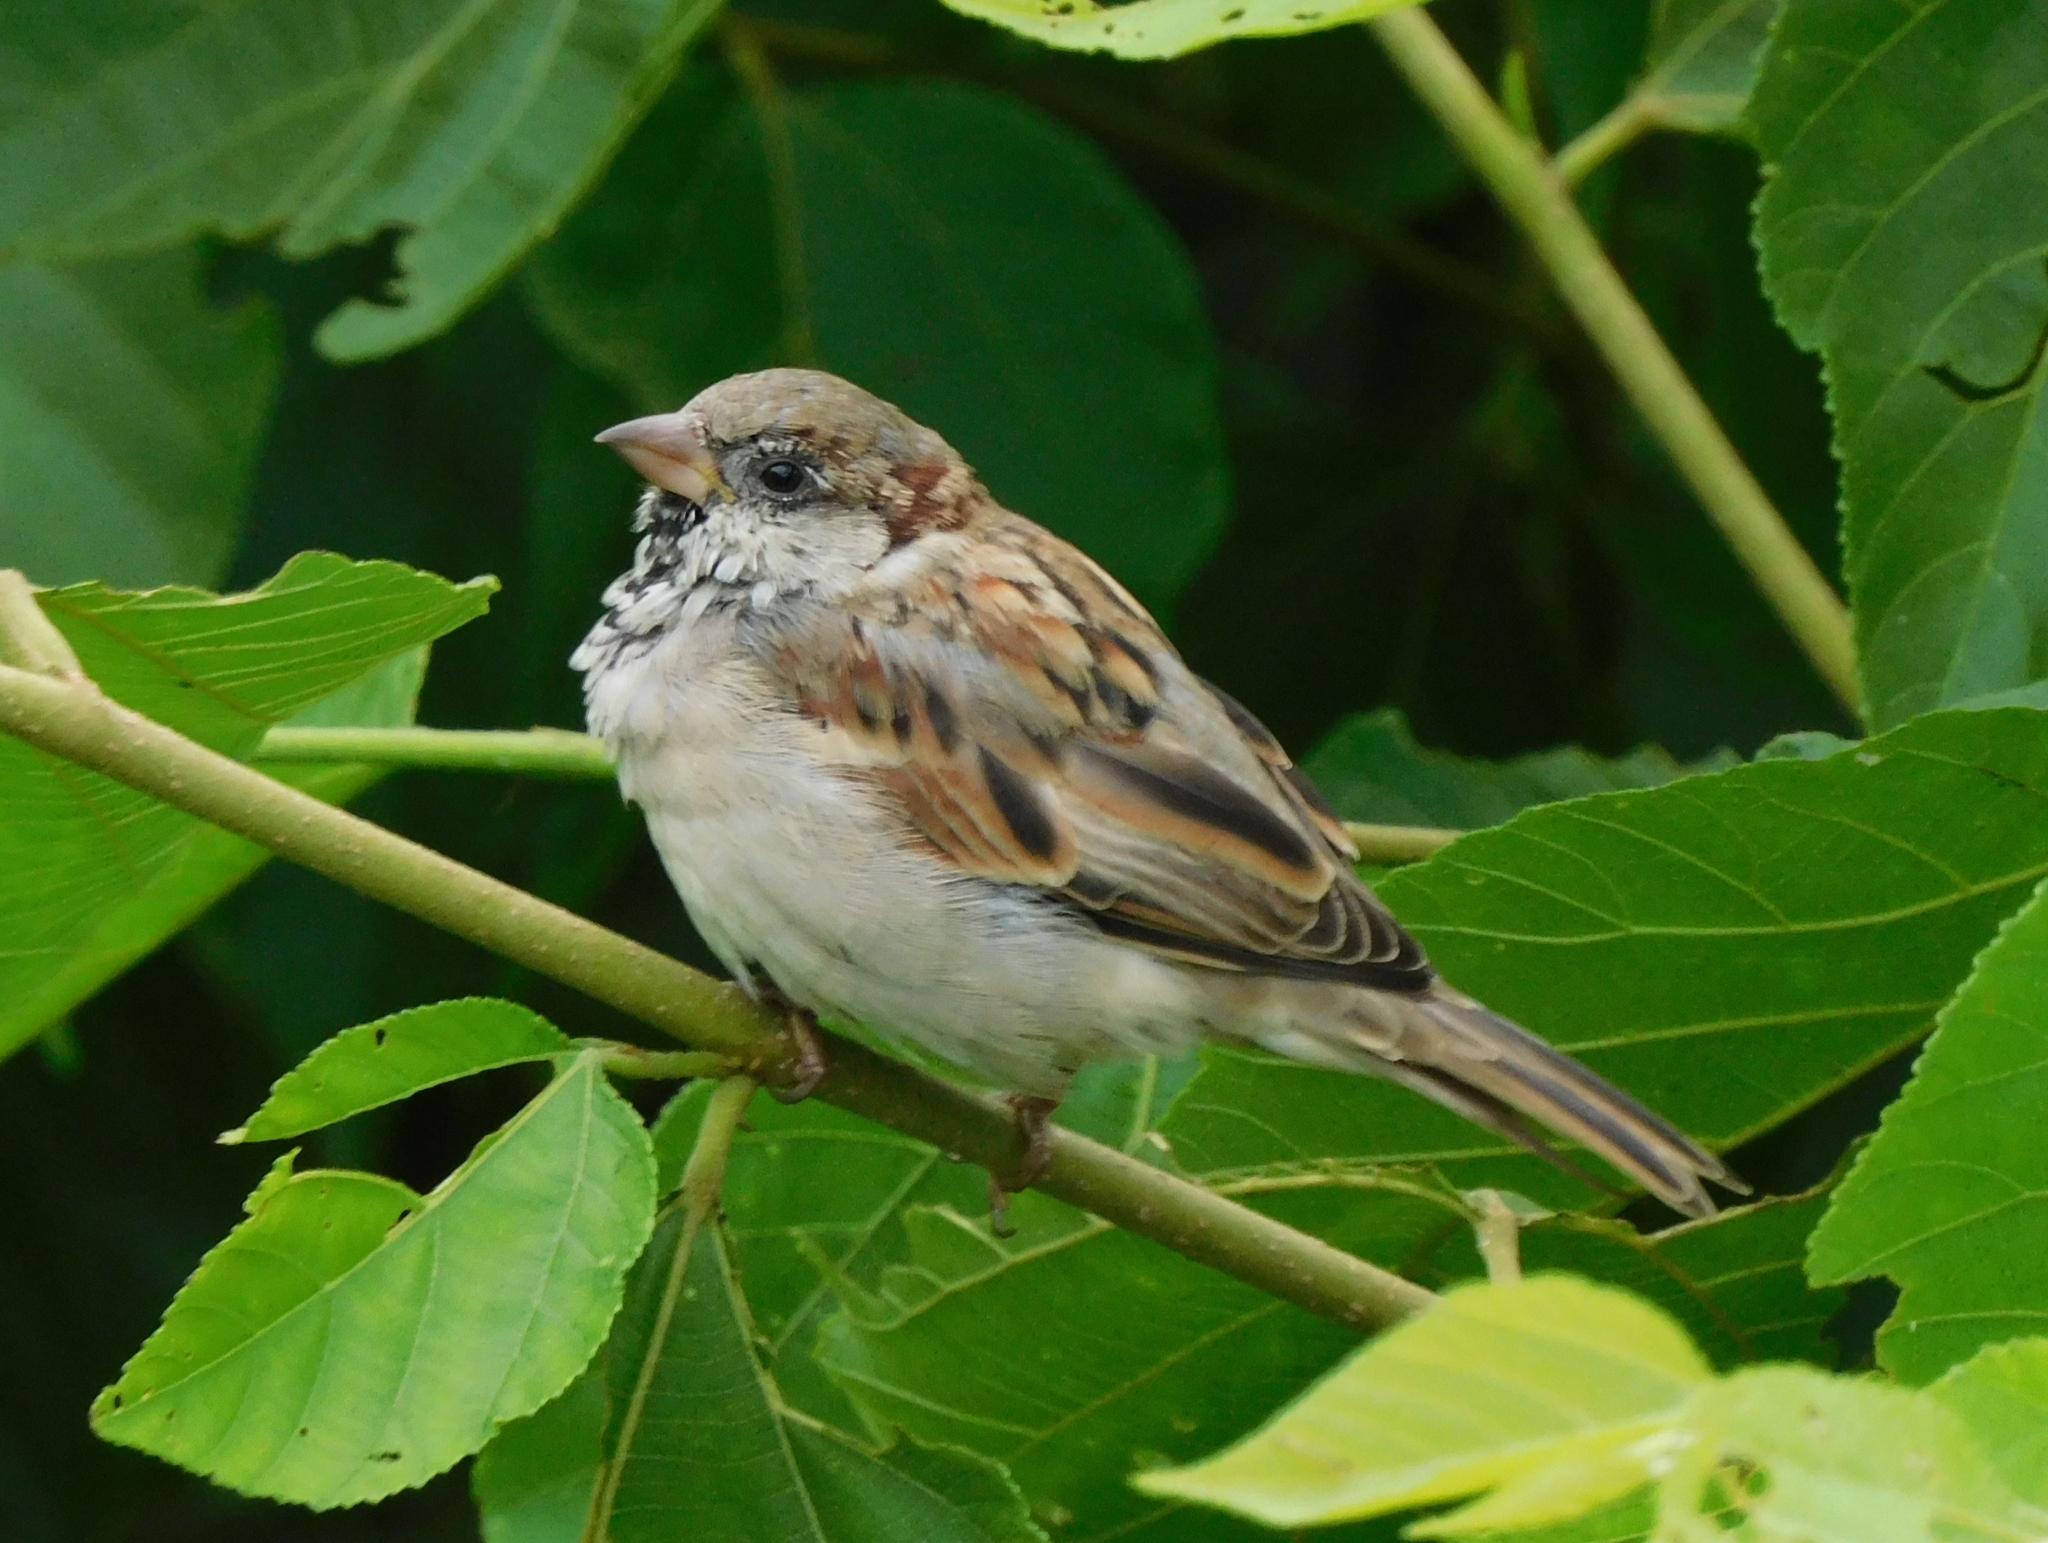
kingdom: Animalia
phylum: Chordata
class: Aves
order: Passeriformes
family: Passeridae
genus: Passer
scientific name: Passer domesticus
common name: House sparrow
